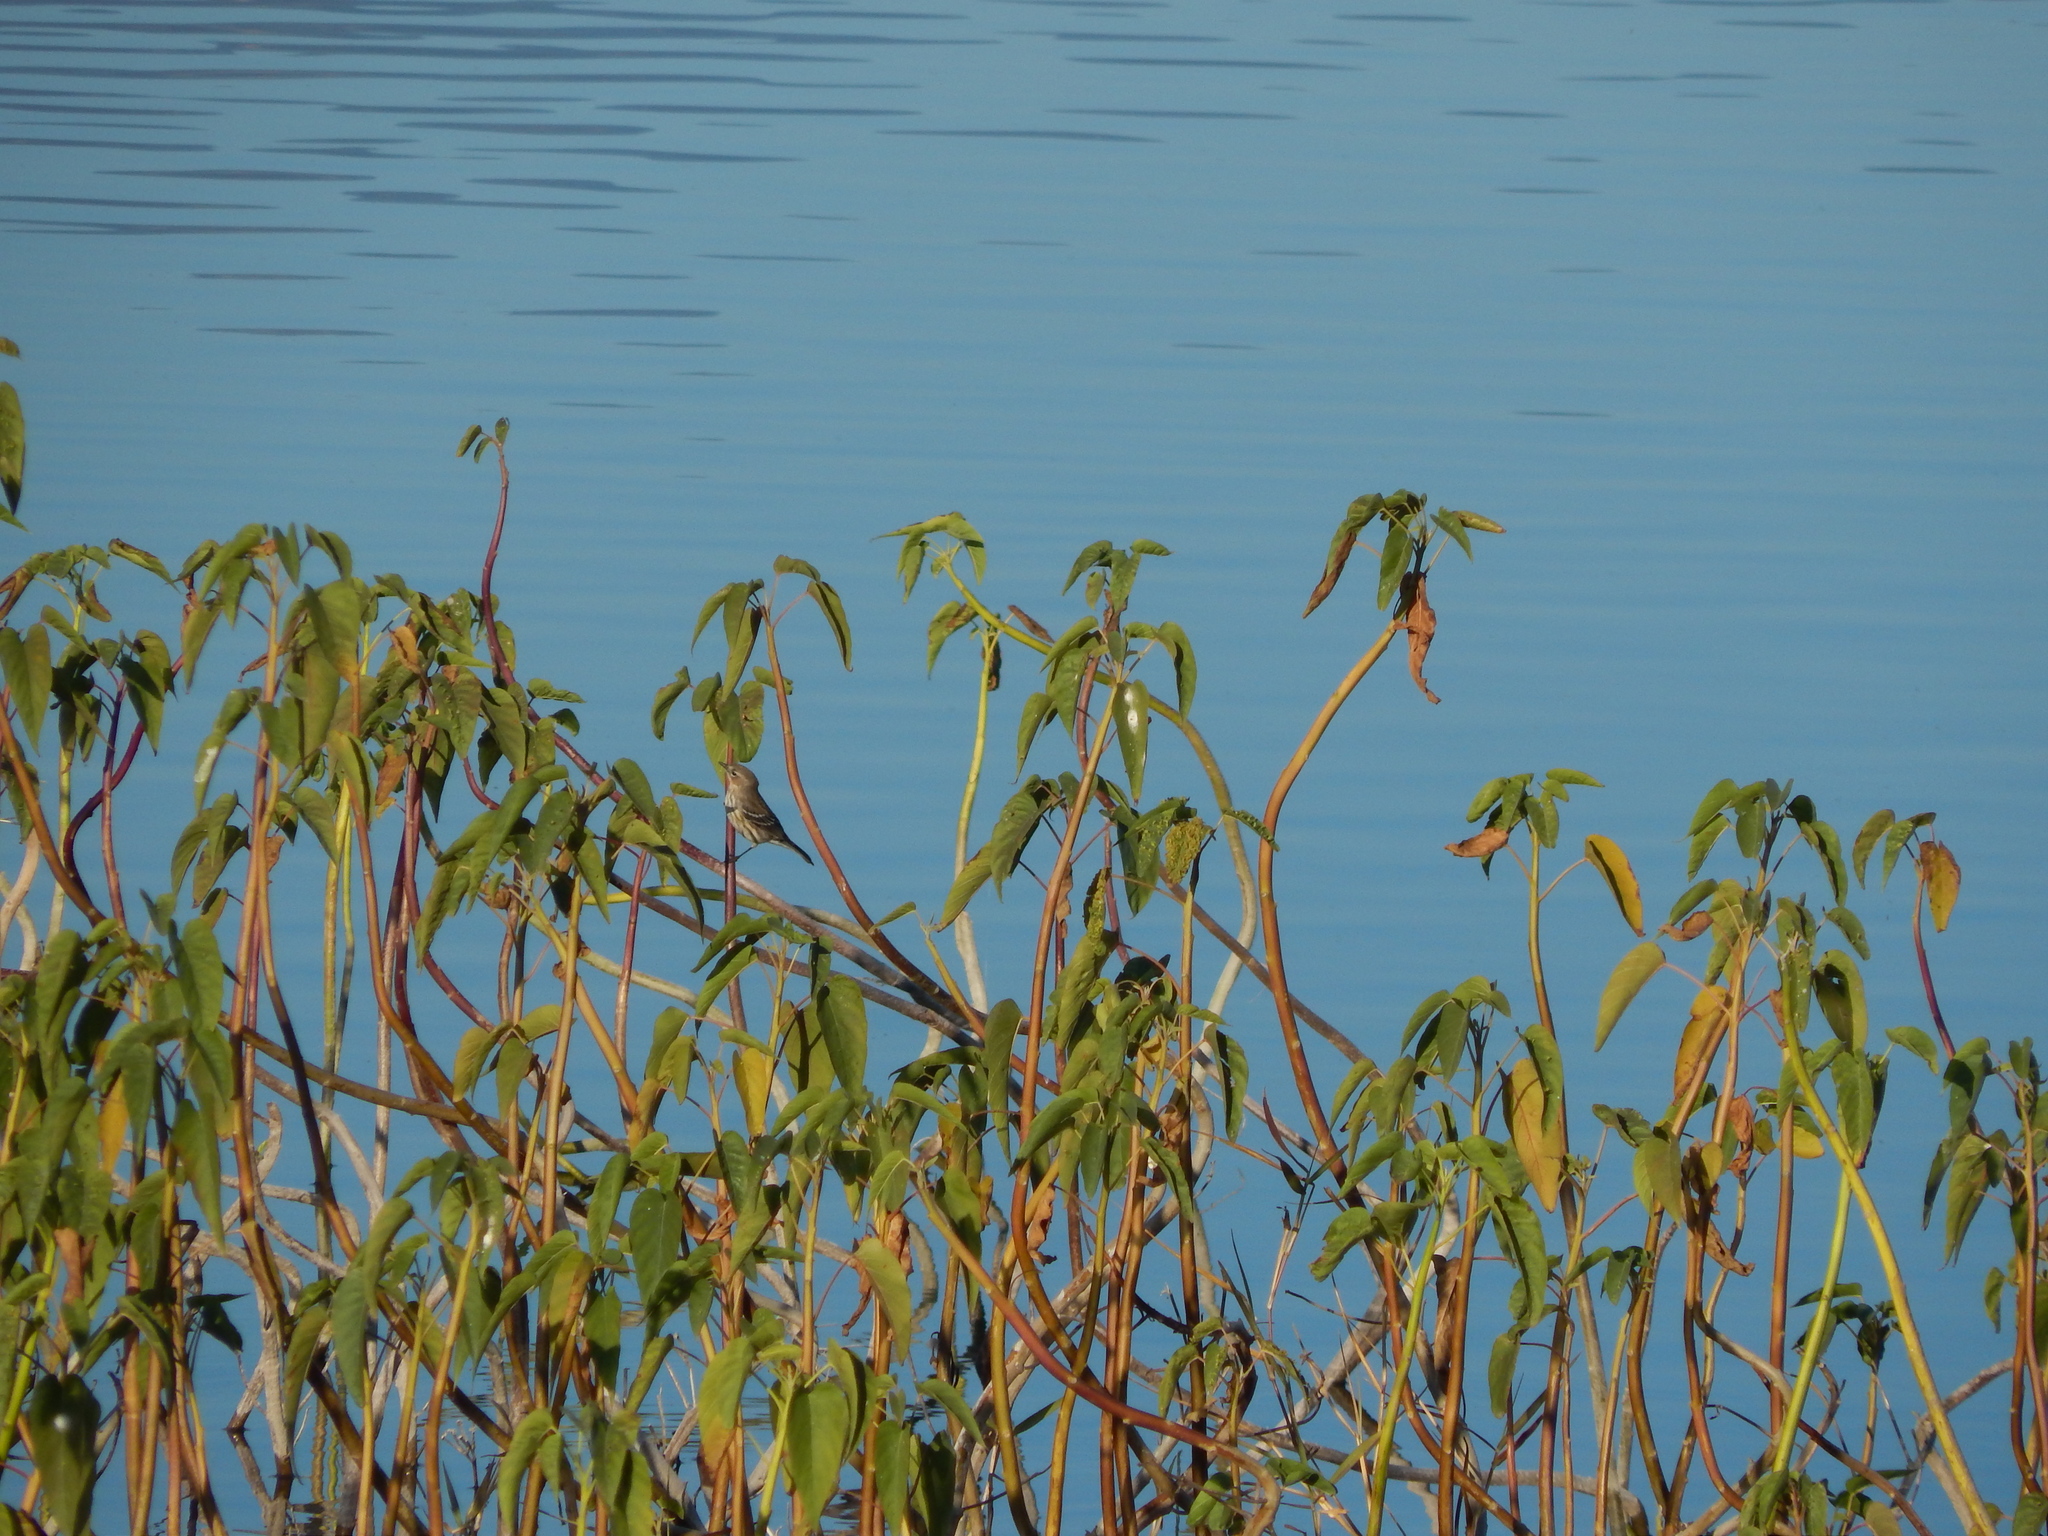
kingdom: Animalia
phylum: Chordata
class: Aves
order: Passeriformes
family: Parulidae
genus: Setophaga
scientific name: Setophaga coronata
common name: Myrtle warbler
